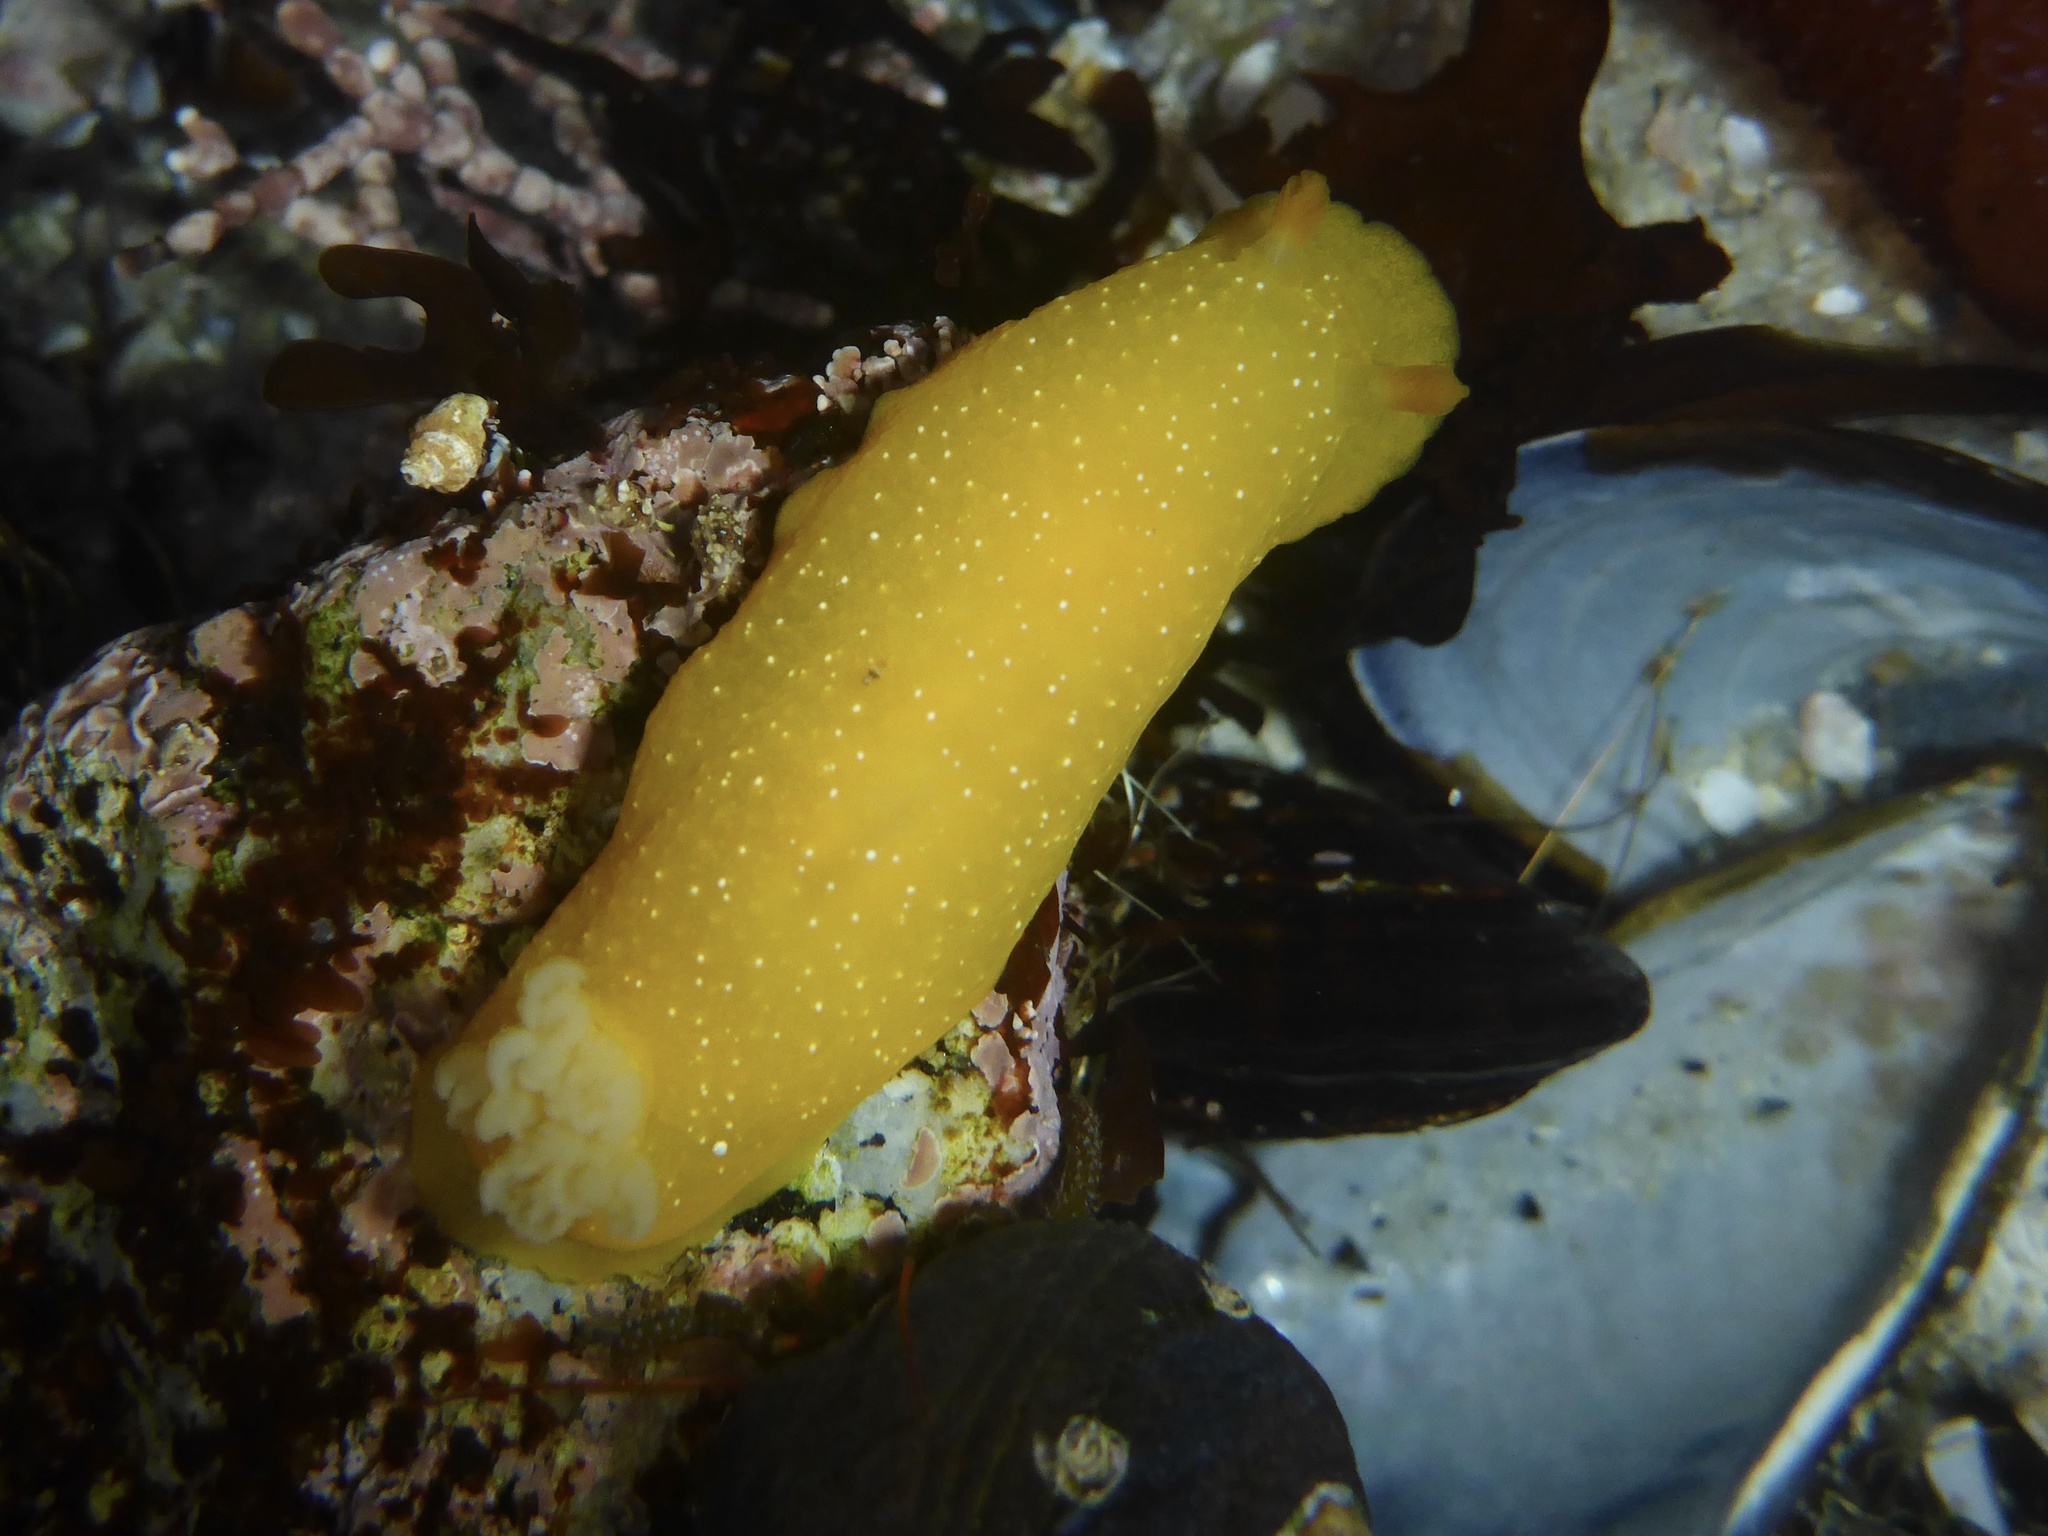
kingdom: Animalia
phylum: Mollusca
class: Gastropoda
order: Nudibranchia
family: Dendrodorididae
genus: Doriopsilla
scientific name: Doriopsilla fulva
